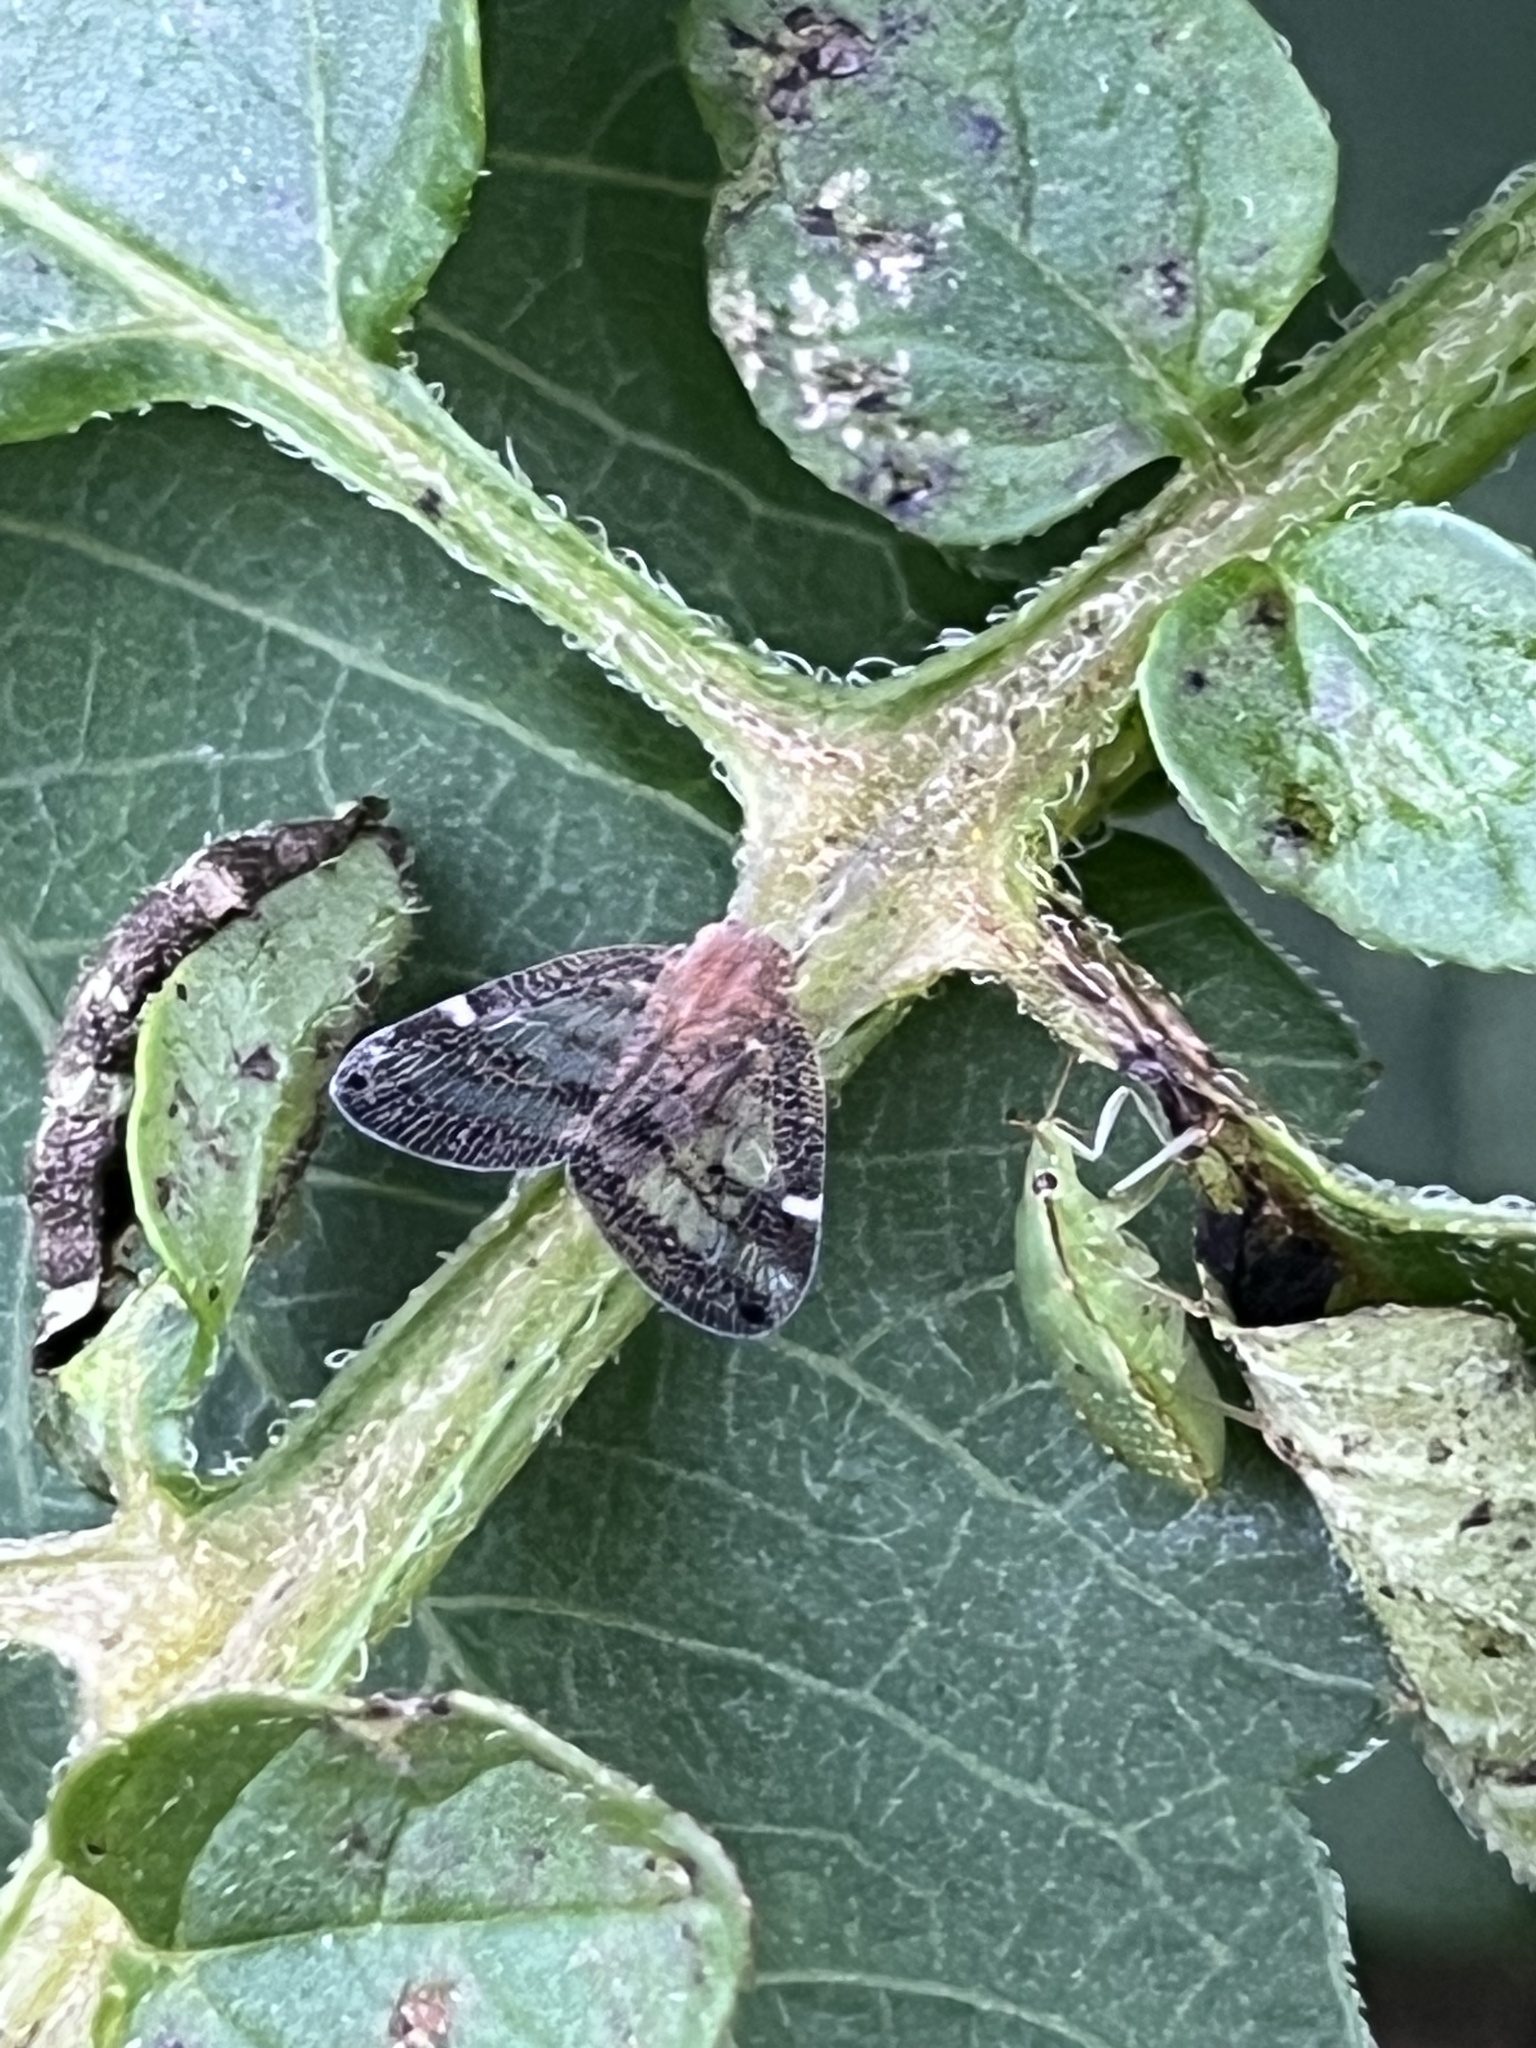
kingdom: Animalia
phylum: Arthropoda
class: Insecta
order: Hemiptera
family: Ricaniidae
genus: Scolypopa
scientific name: Scolypopa australis
